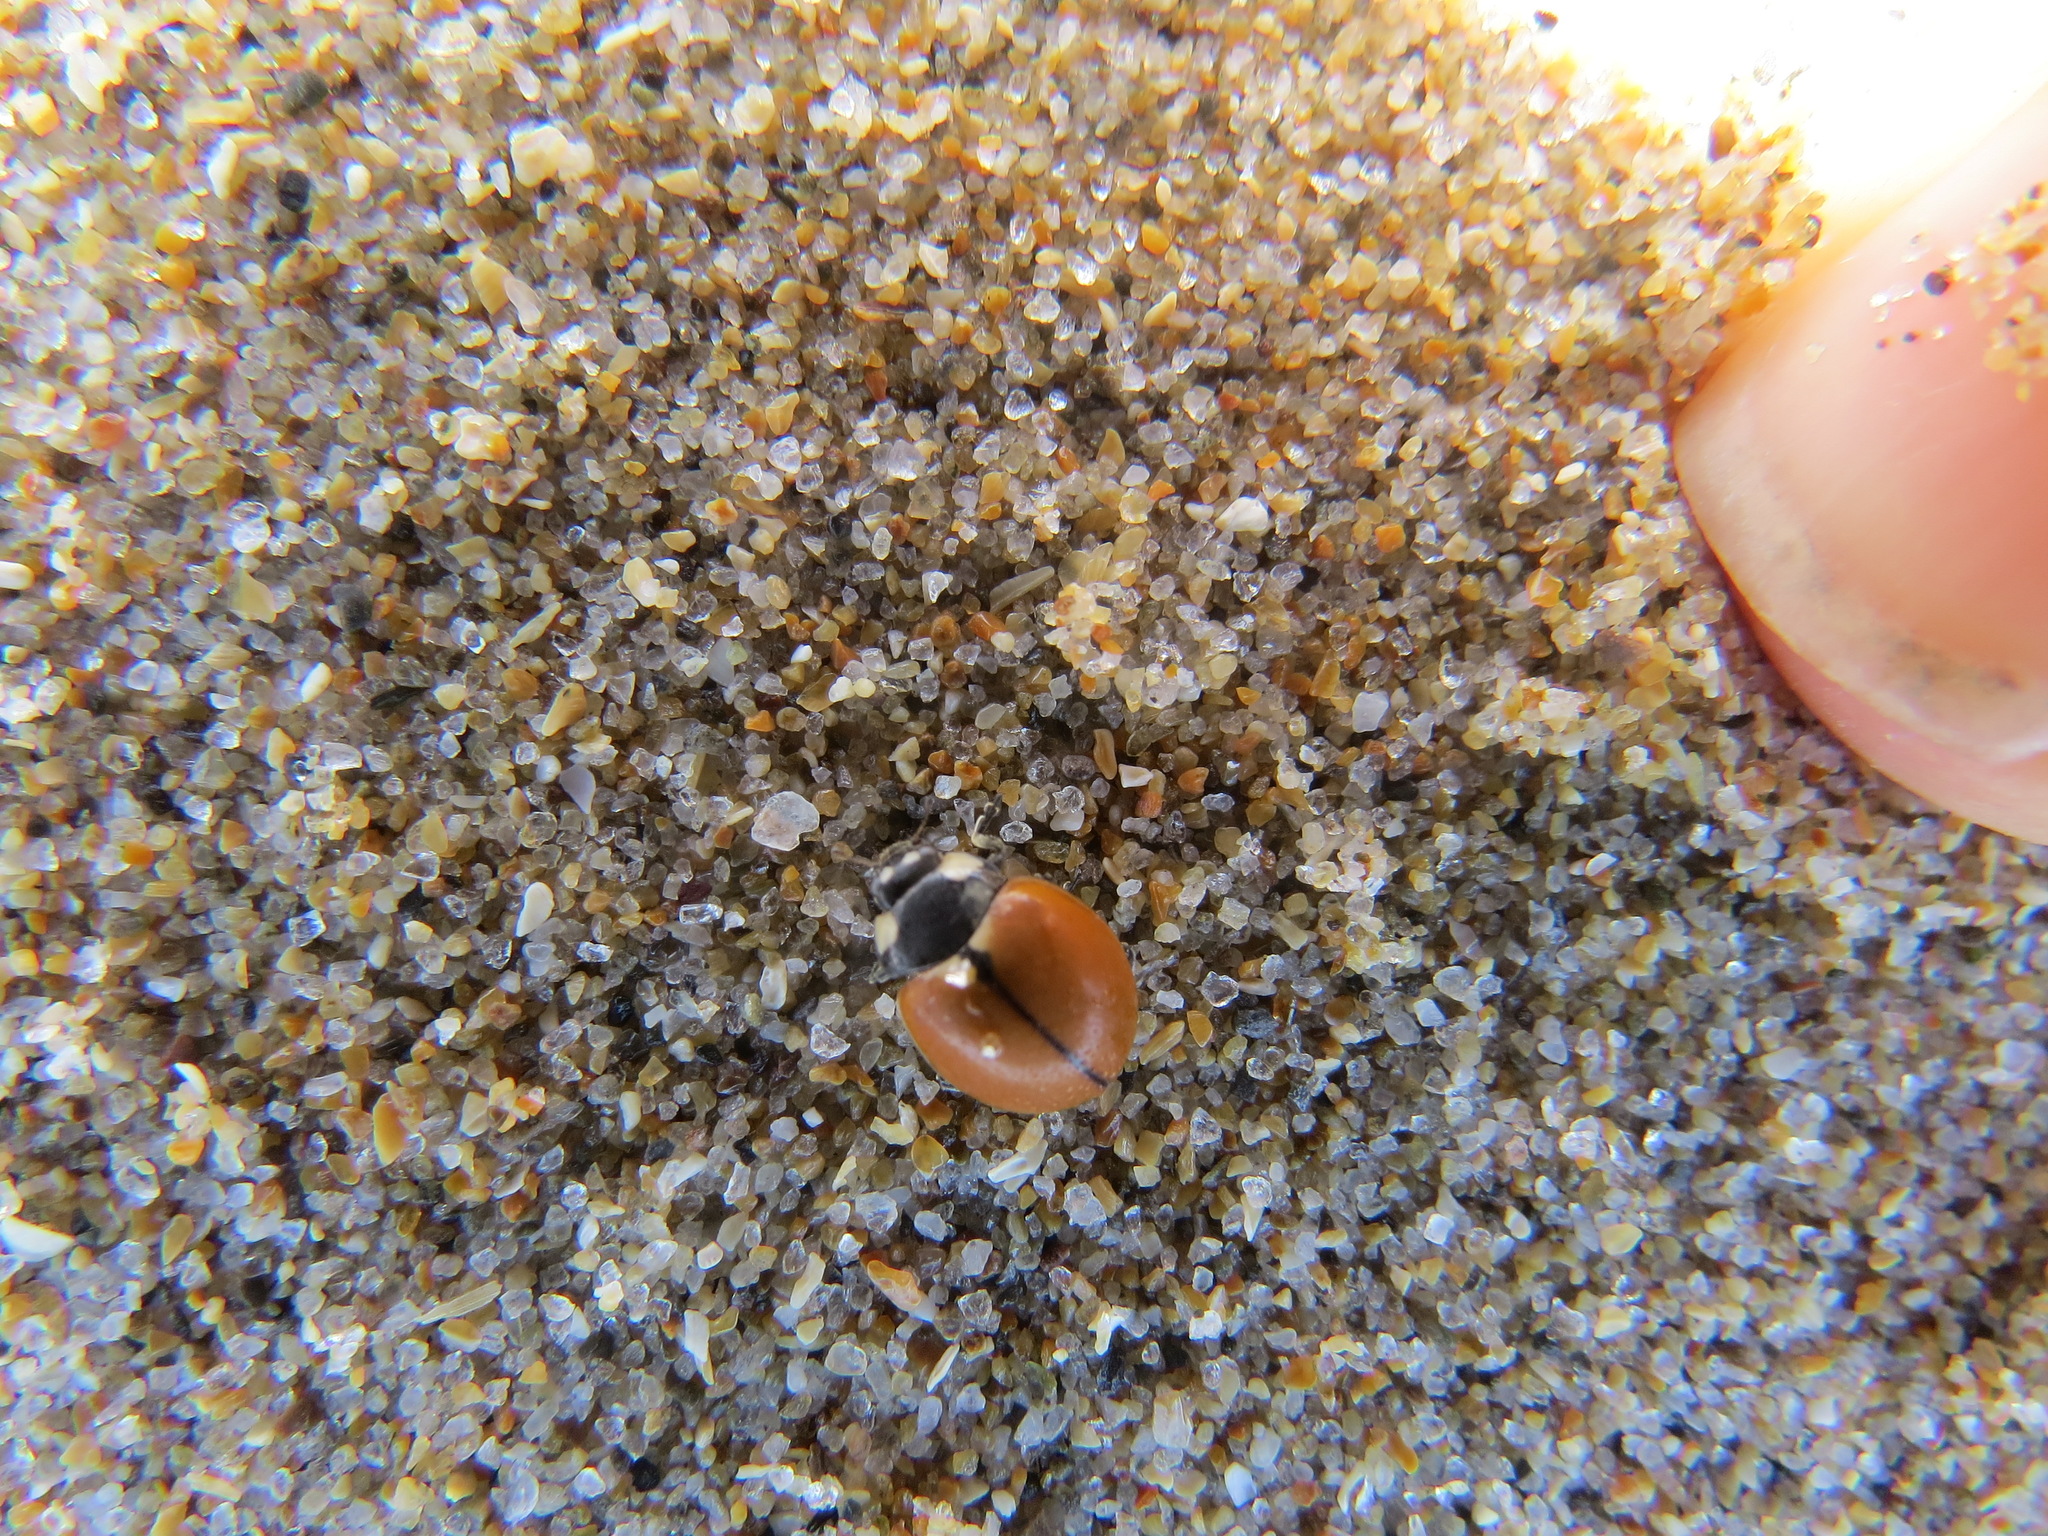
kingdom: Animalia
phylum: Arthropoda
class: Insecta
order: Coleoptera
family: Coccinellidae
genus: Coccinella
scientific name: Coccinella californica
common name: Lady beetle
